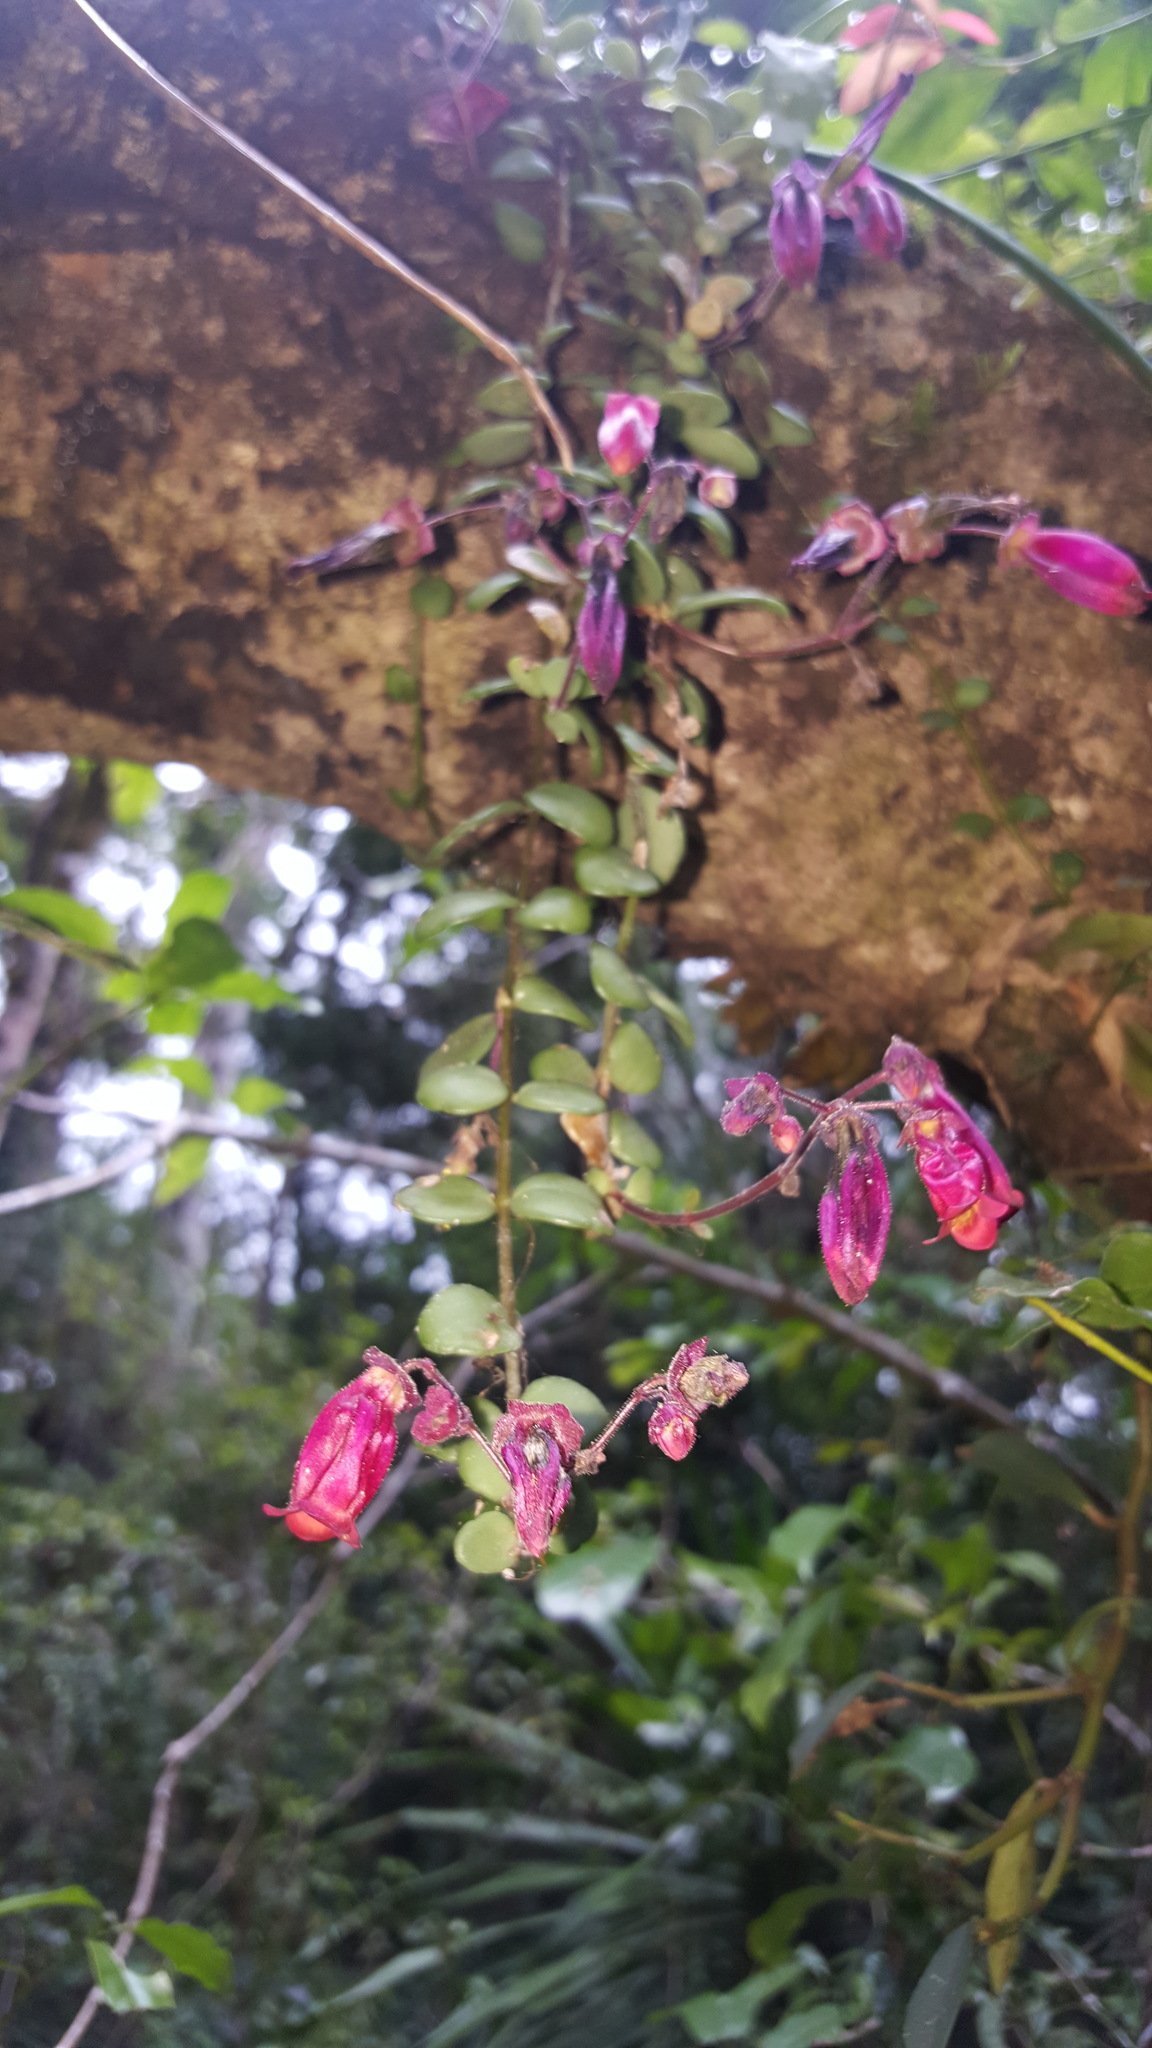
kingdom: Plantae
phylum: Tracheophyta
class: Magnoliopsida
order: Saxifragales
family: Crassulaceae
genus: Kalanchoe
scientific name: Kalanchoe uniflora
